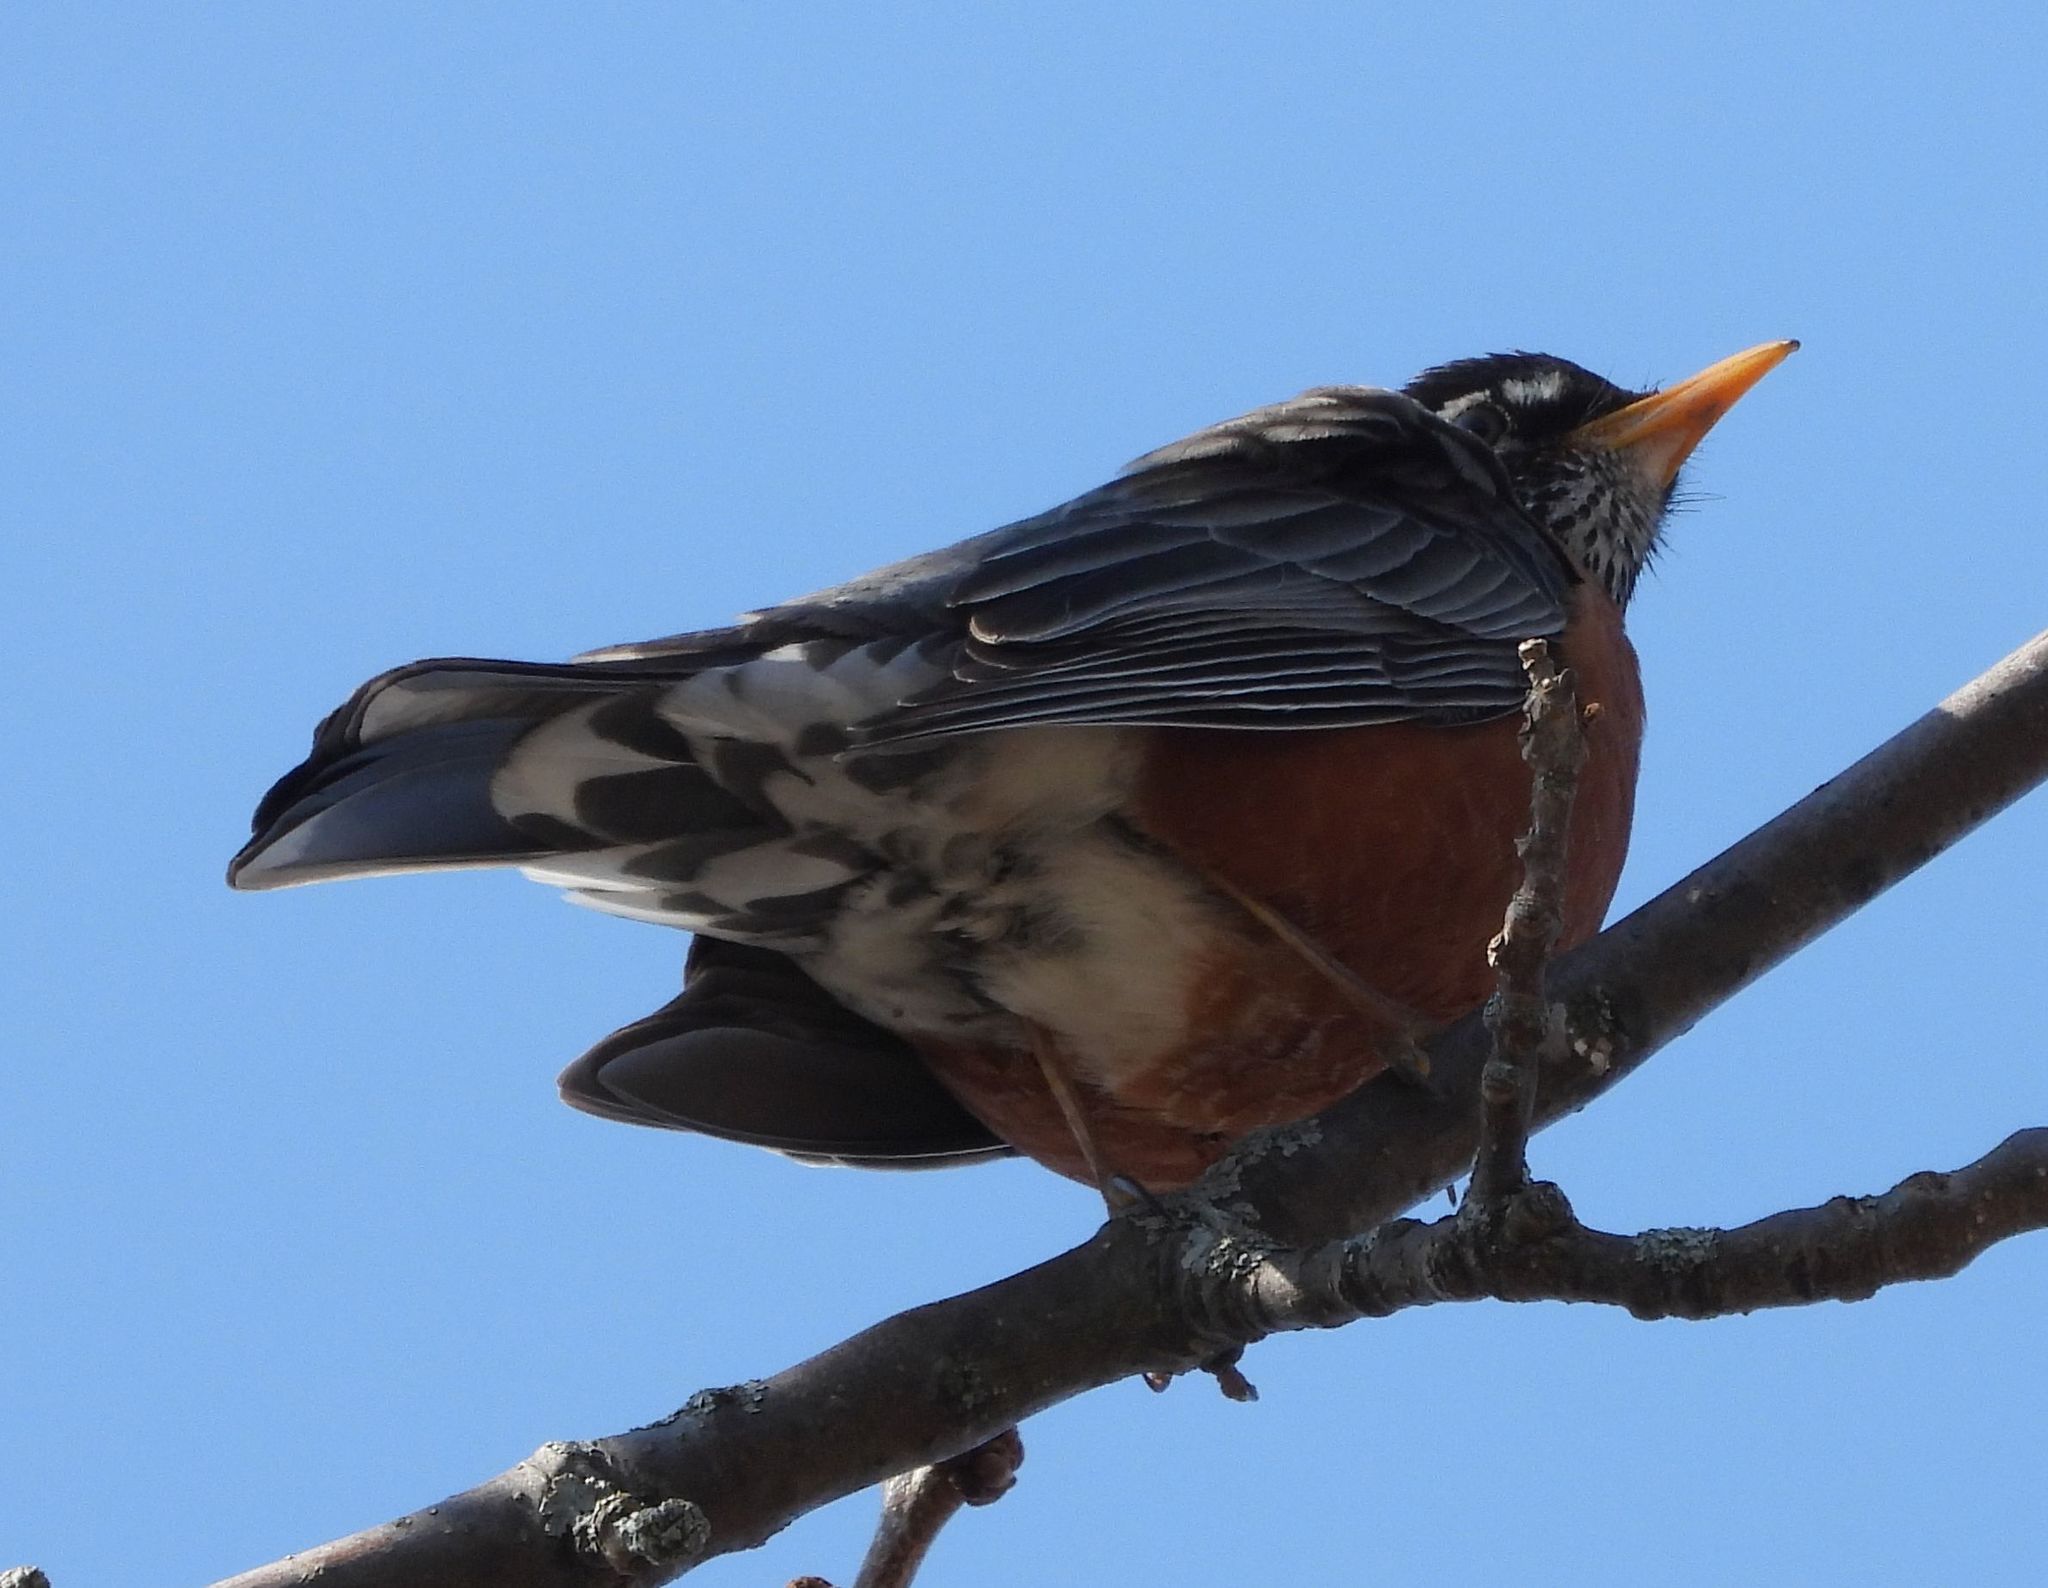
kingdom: Animalia
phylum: Chordata
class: Aves
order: Passeriformes
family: Turdidae
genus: Turdus
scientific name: Turdus migratorius
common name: American robin
